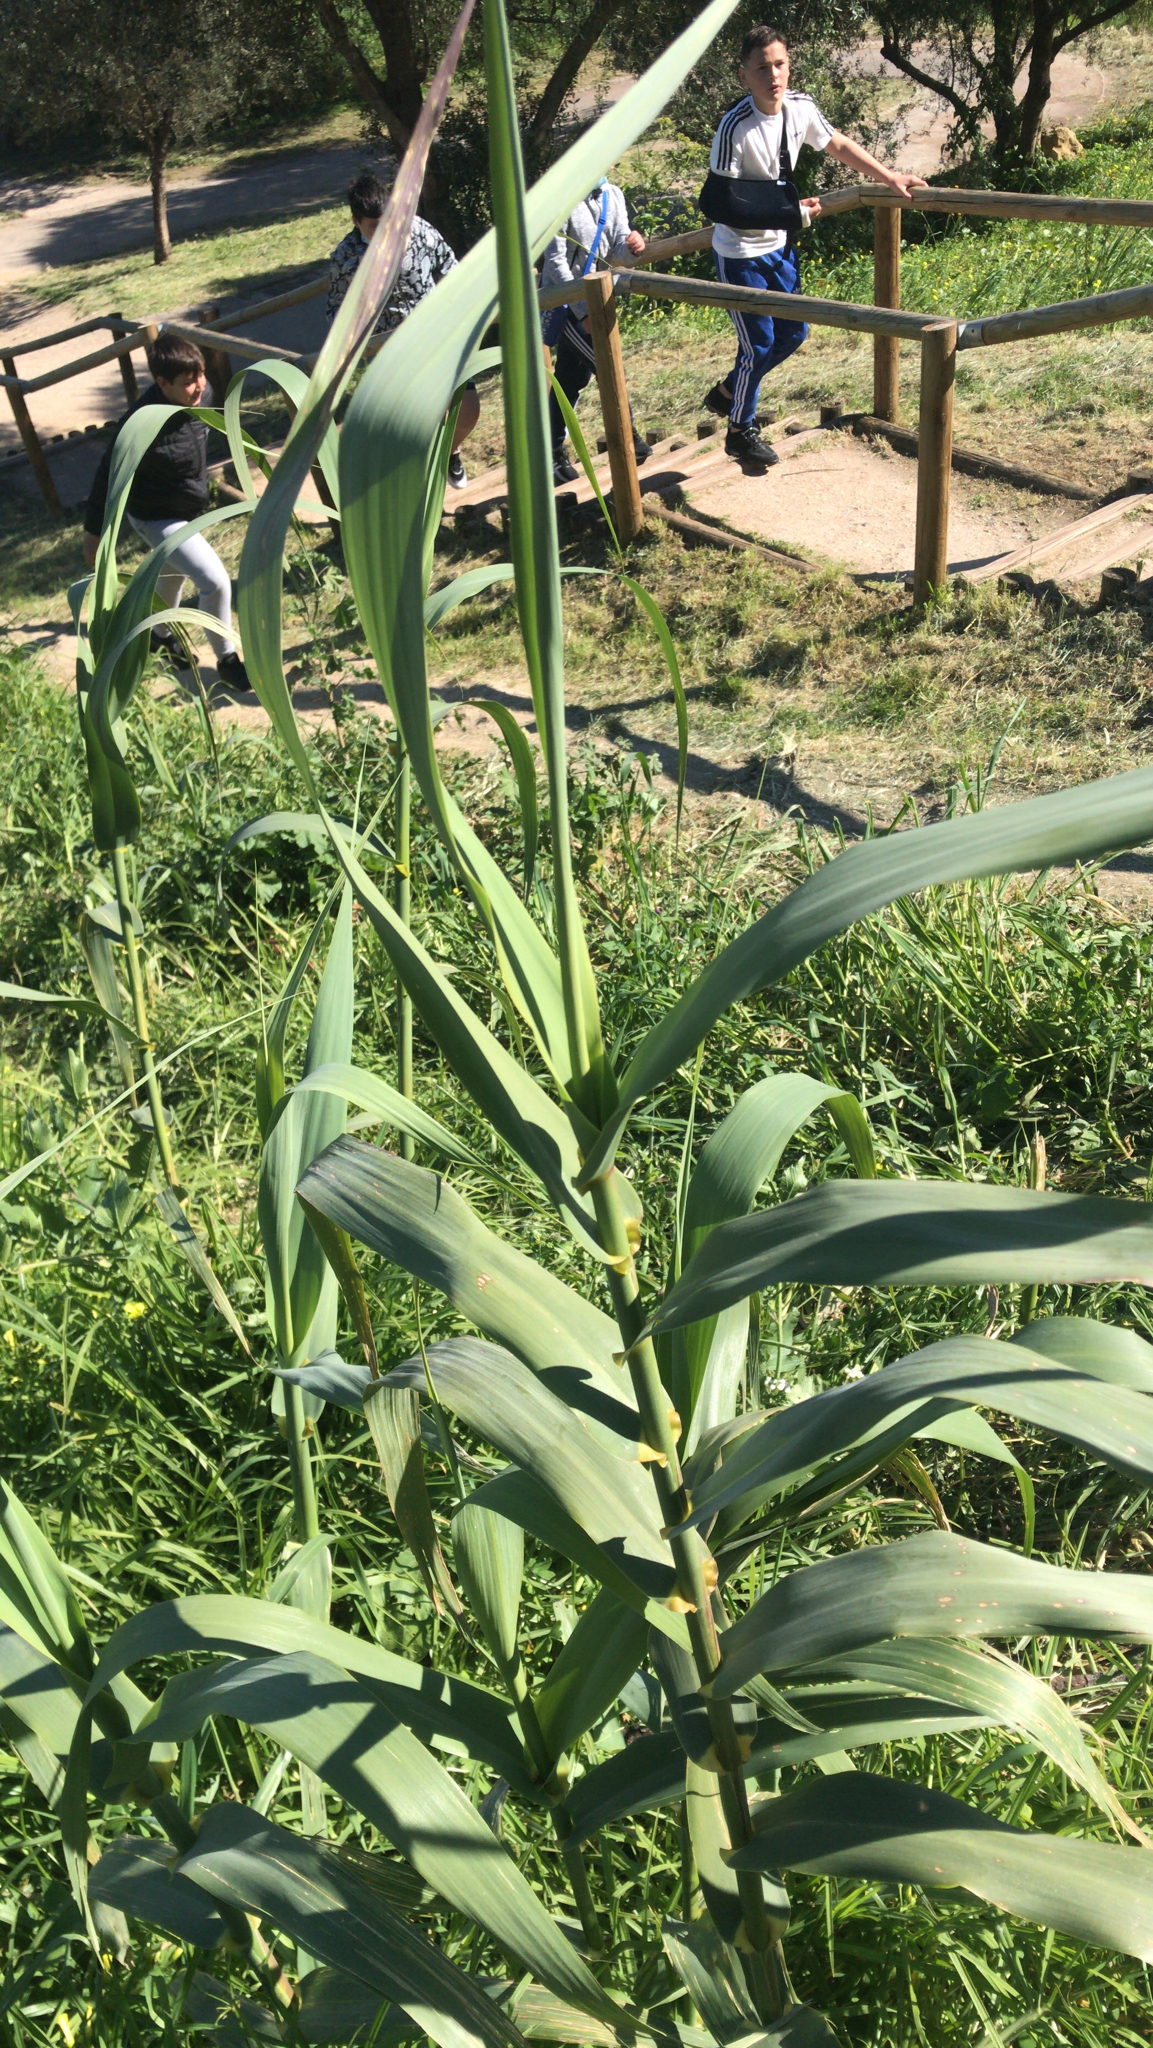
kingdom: Plantae
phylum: Tracheophyta
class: Liliopsida
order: Poales
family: Poaceae
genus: Arundo
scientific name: Arundo donax
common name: Giant reed
